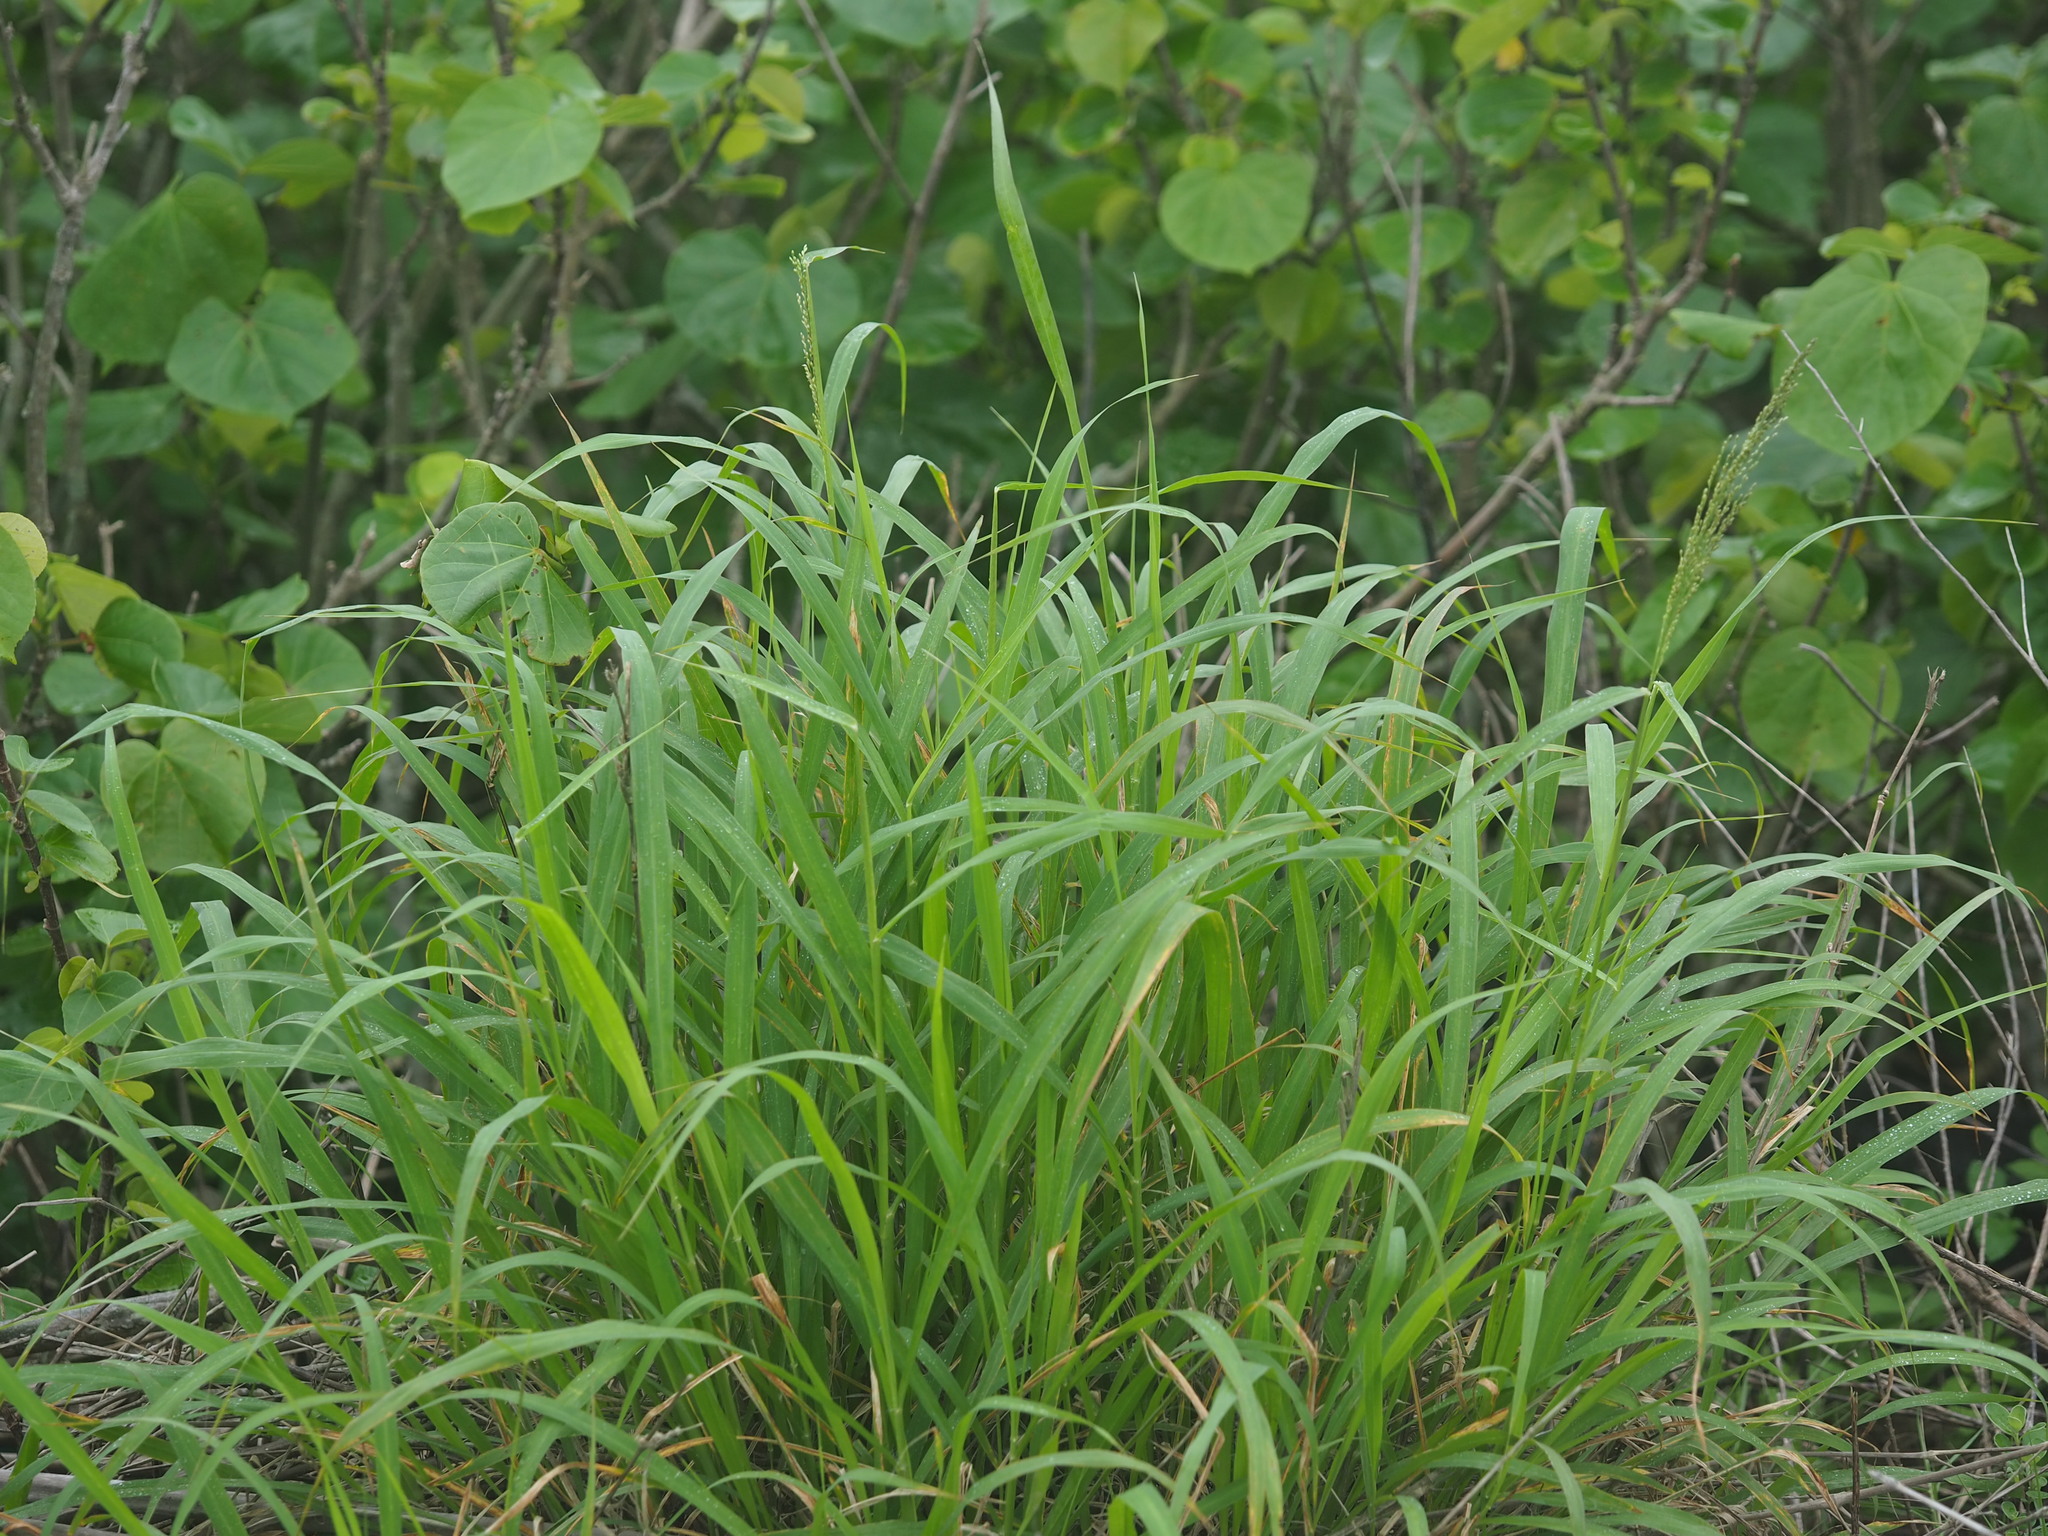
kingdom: Plantae
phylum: Tracheophyta
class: Liliopsida
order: Poales
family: Poaceae
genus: Megathyrsus
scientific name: Megathyrsus maximus
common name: Guineagrass
